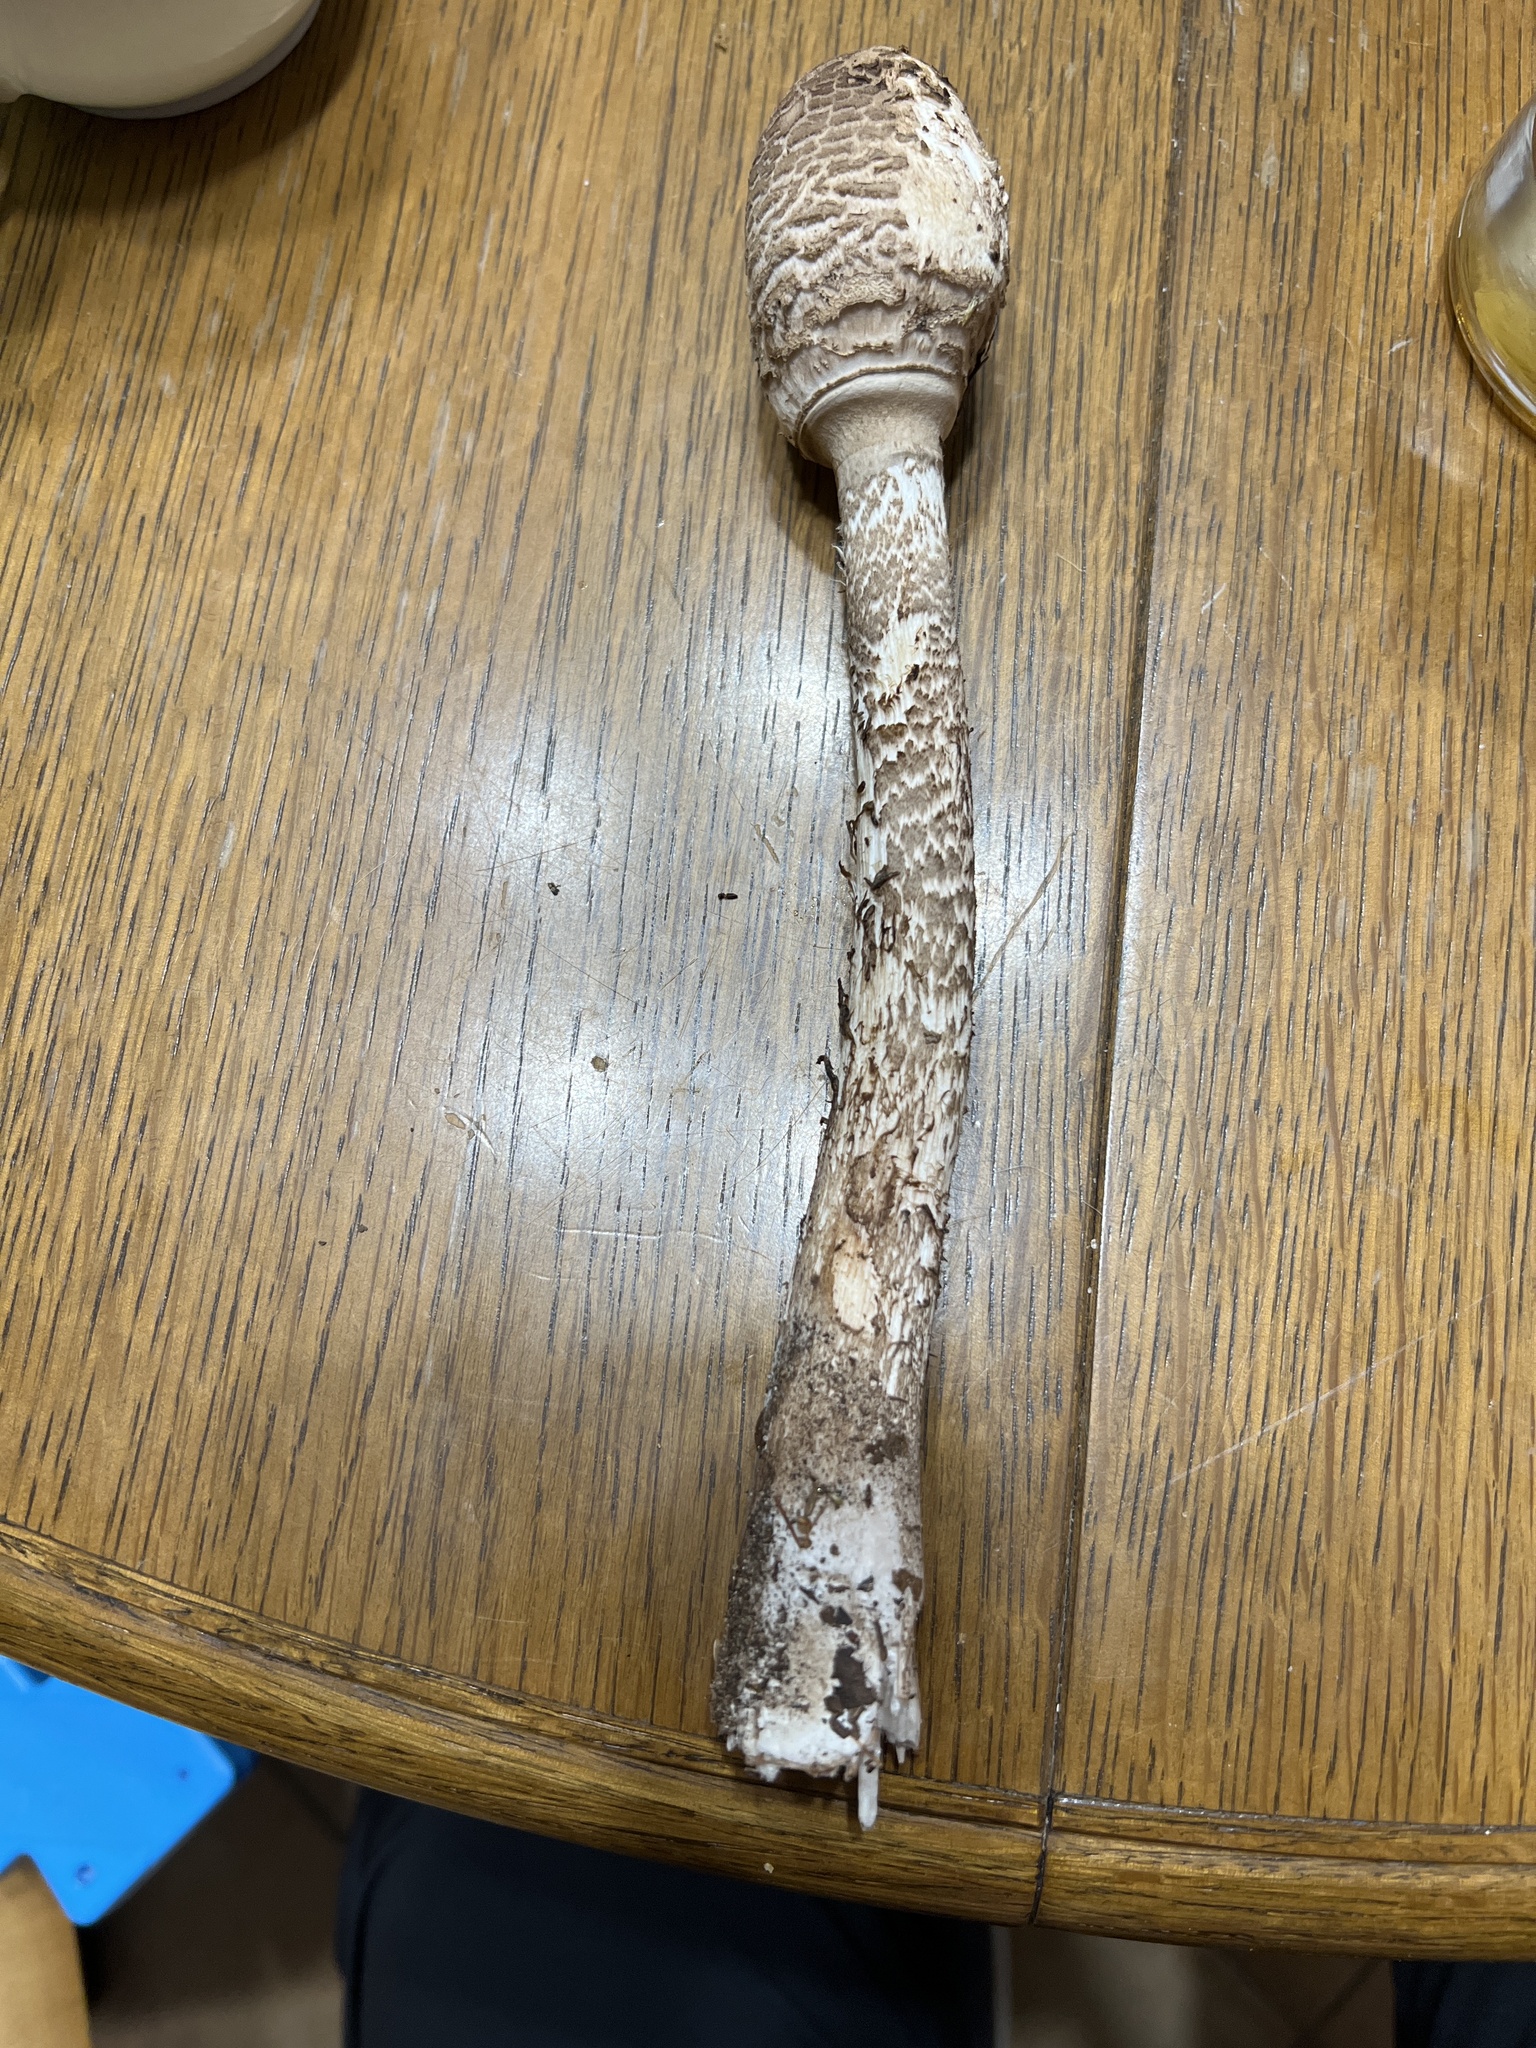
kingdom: Fungi
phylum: Basidiomycota
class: Agaricomycetes
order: Agaricales
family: Agaricaceae
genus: Macrolepiota
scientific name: Macrolepiota procera
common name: Parasol
